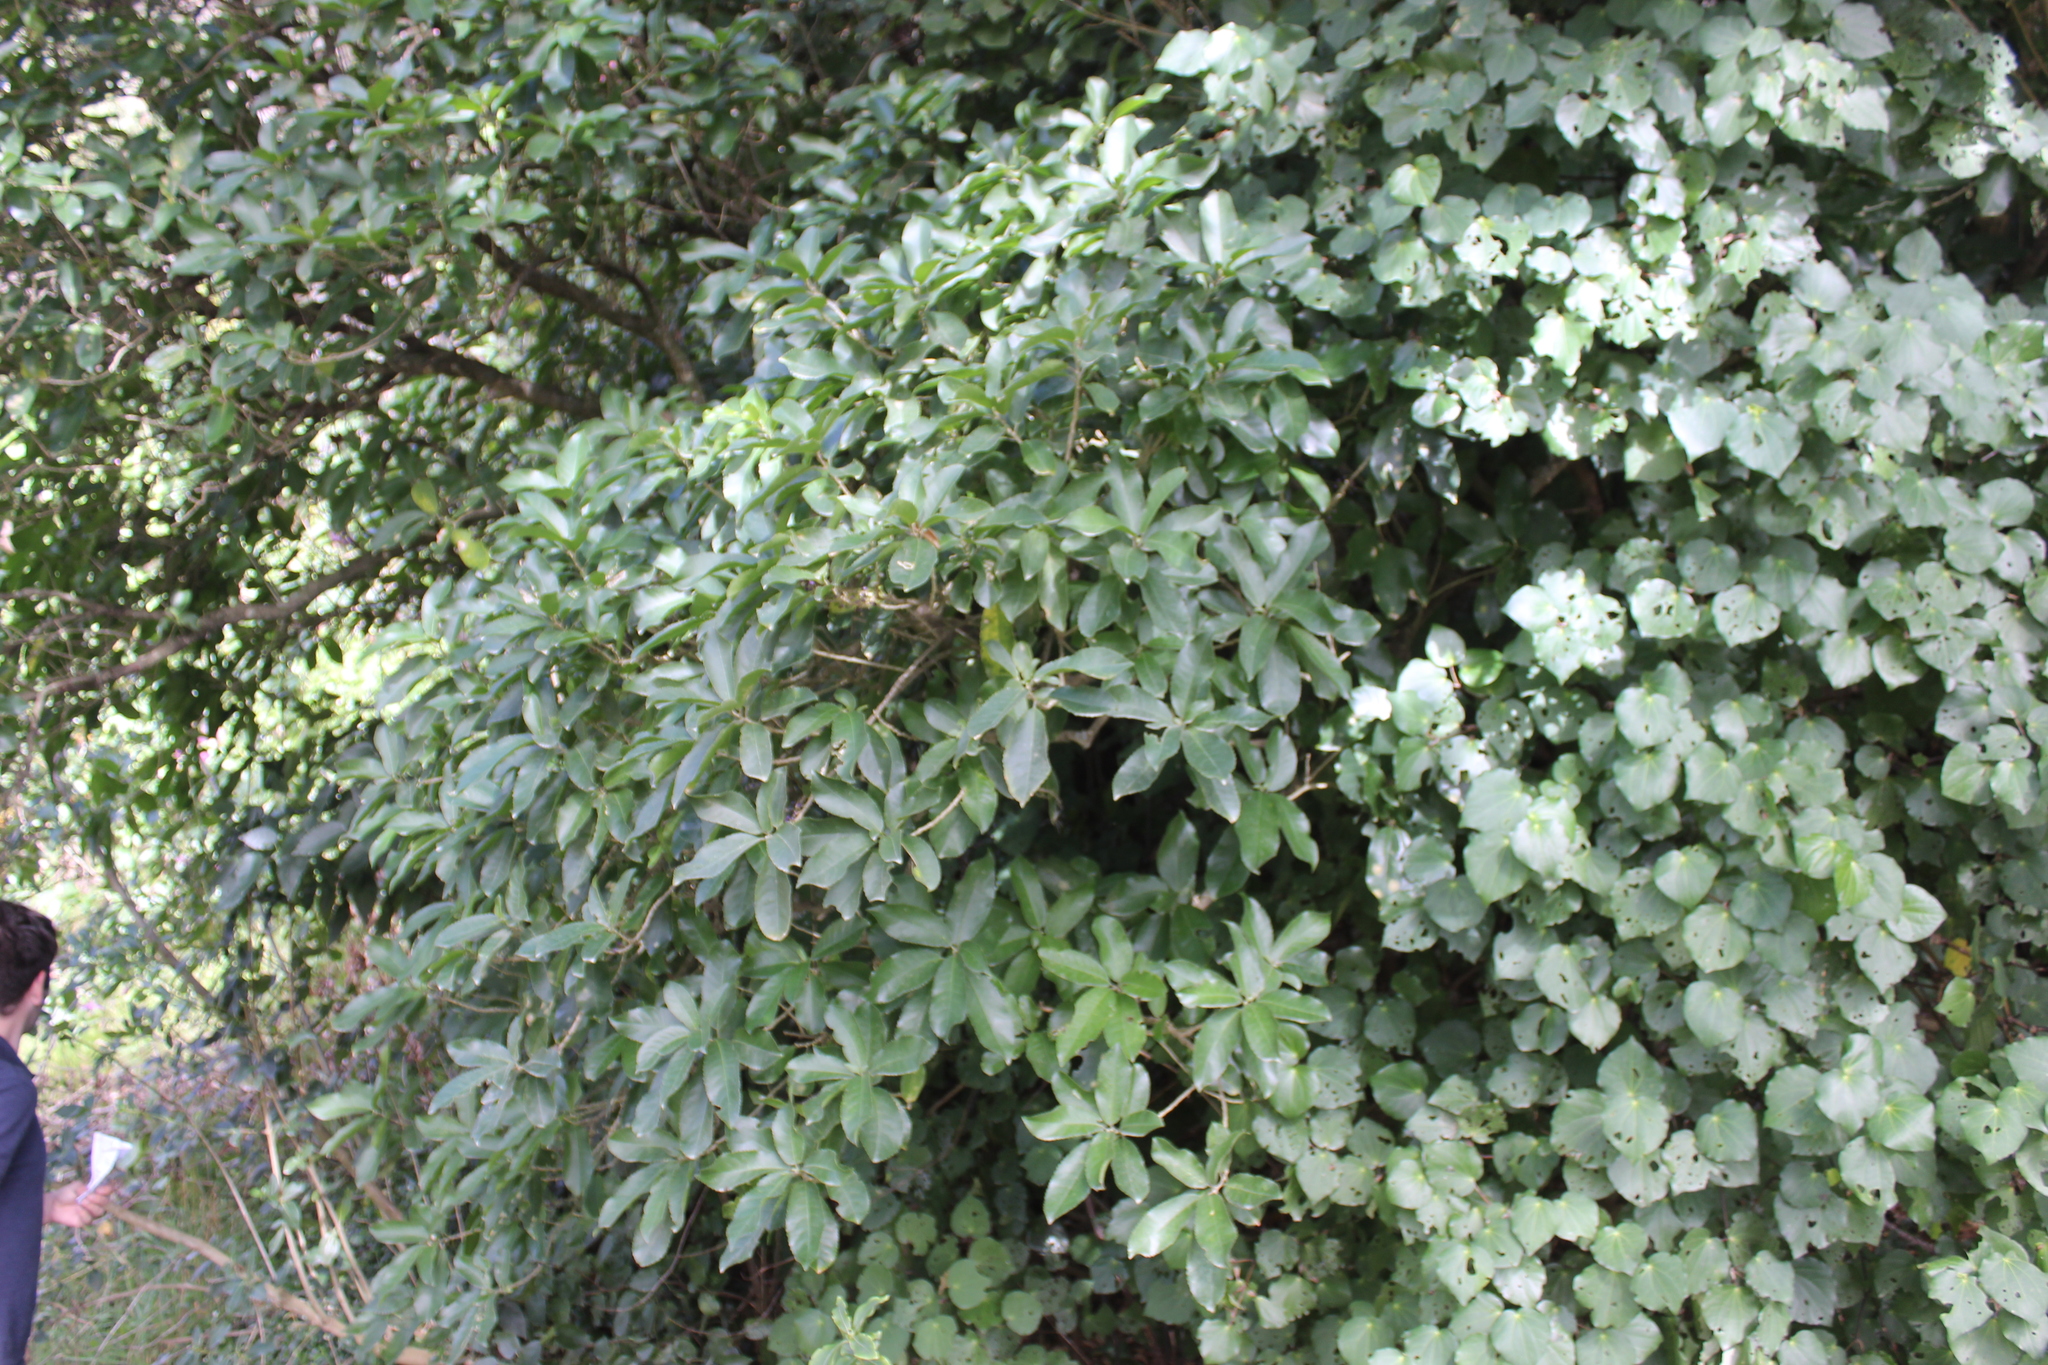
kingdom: Plantae
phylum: Tracheophyta
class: Magnoliopsida
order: Malpighiales
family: Violaceae
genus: Melicytus
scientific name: Melicytus ramiflorus
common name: Mahoe
